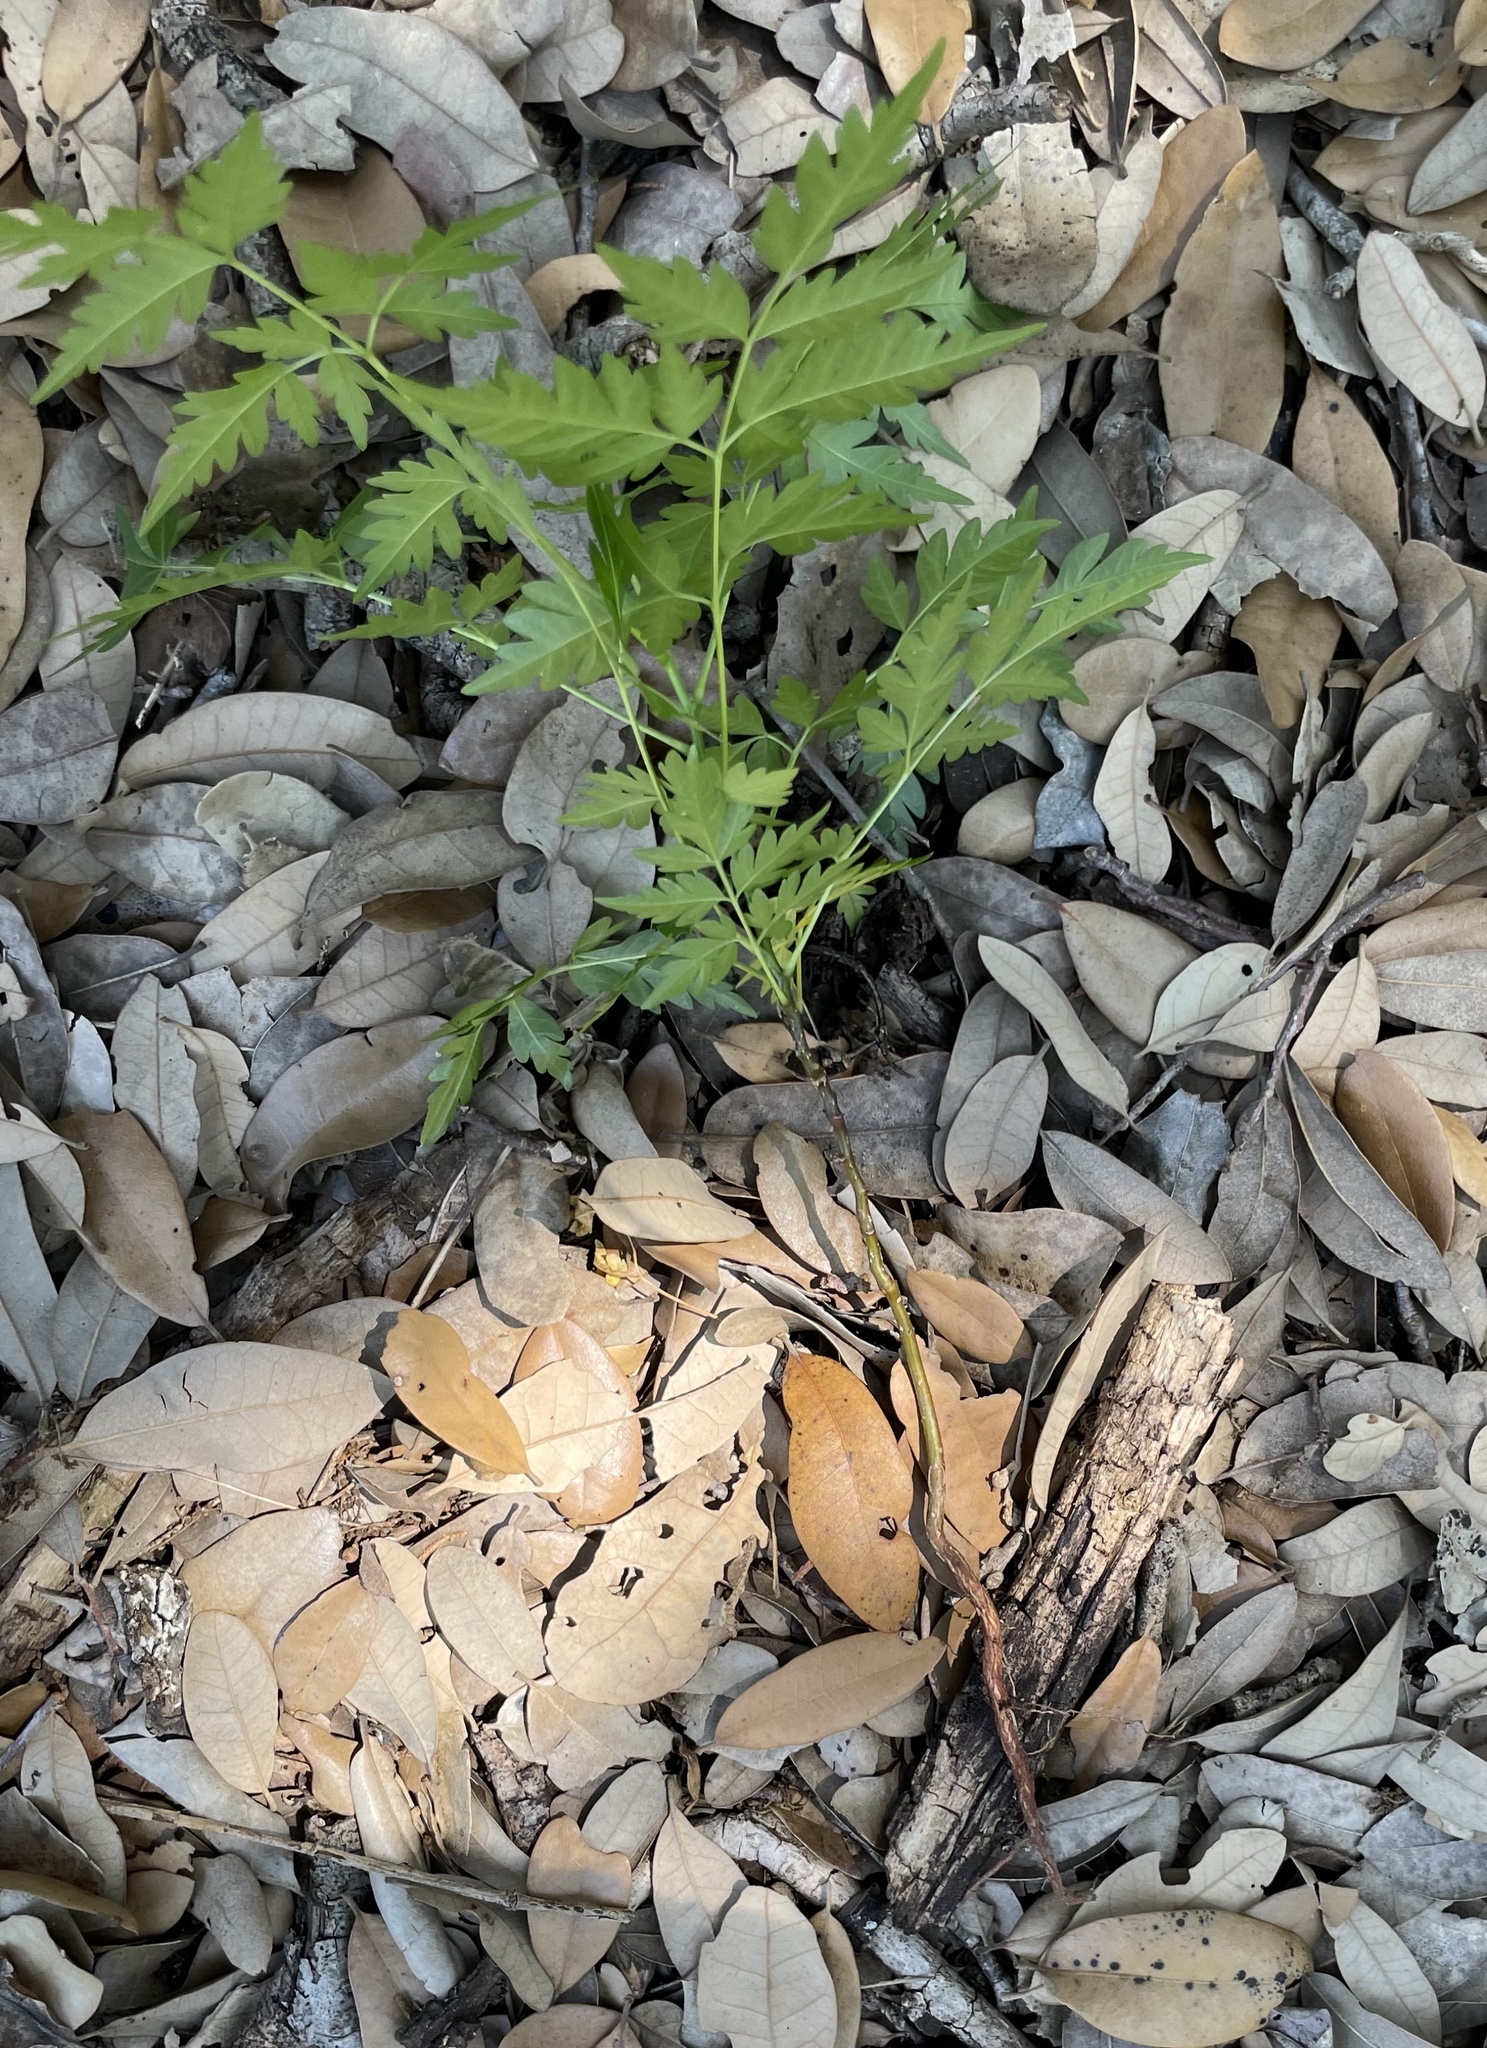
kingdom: Plantae
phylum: Tracheophyta
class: Magnoliopsida
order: Sapindales
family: Meliaceae
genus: Melia
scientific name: Melia azedarach
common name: Chinaberrytree
